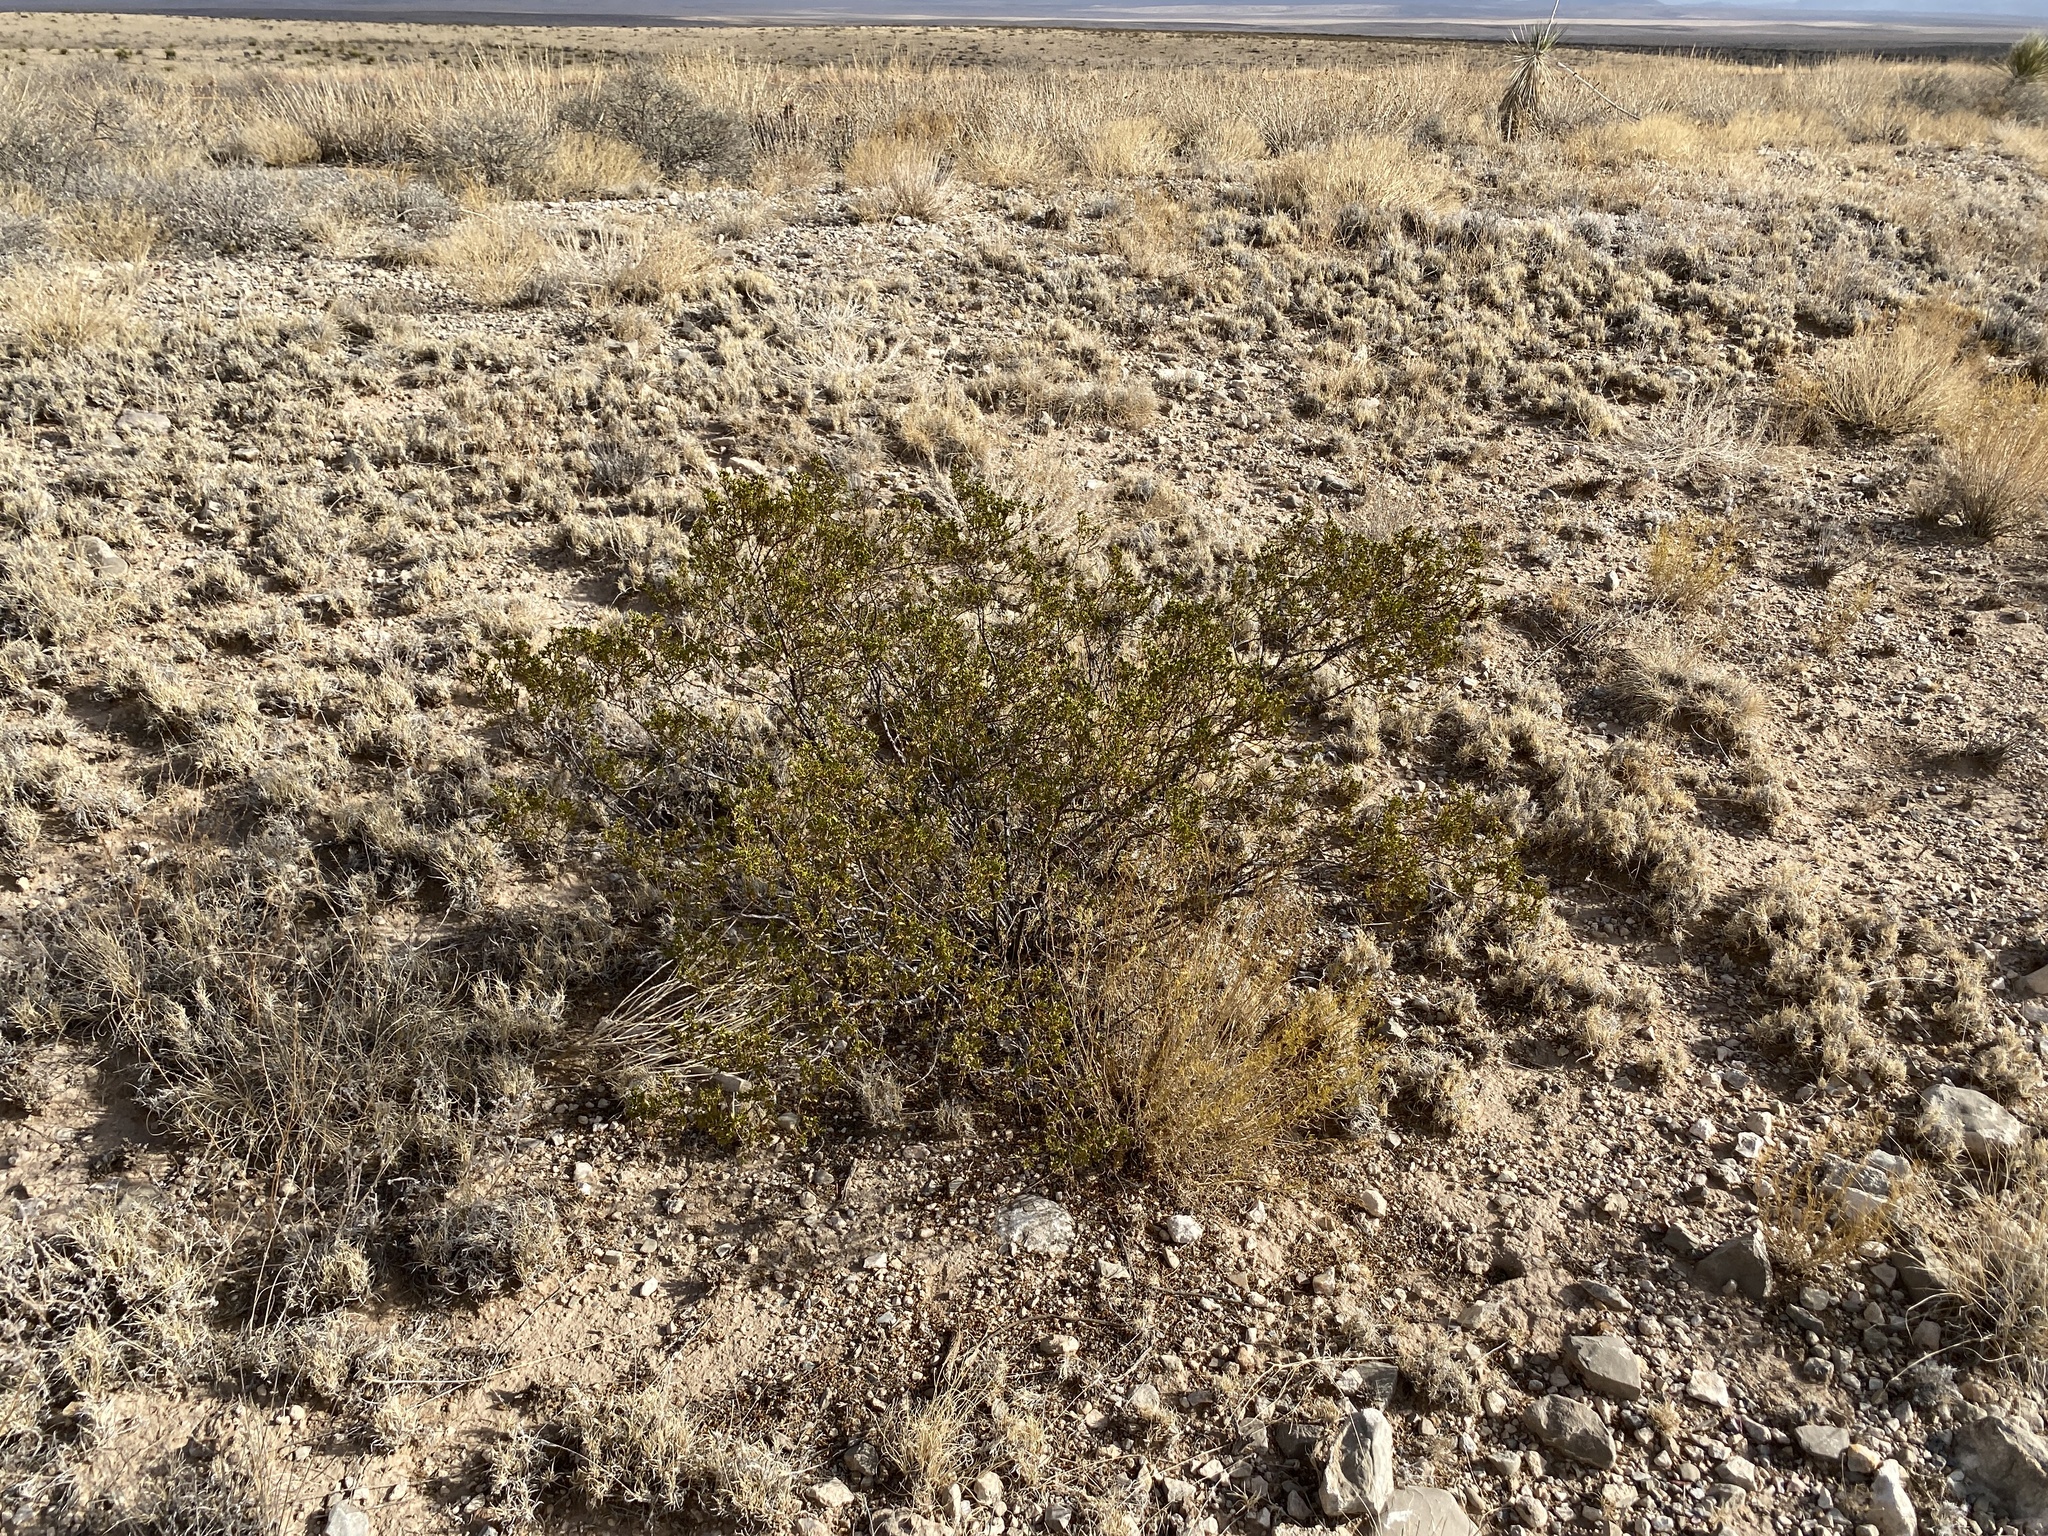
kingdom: Plantae
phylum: Tracheophyta
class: Magnoliopsida
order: Zygophyllales
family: Zygophyllaceae
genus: Larrea
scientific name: Larrea tridentata
